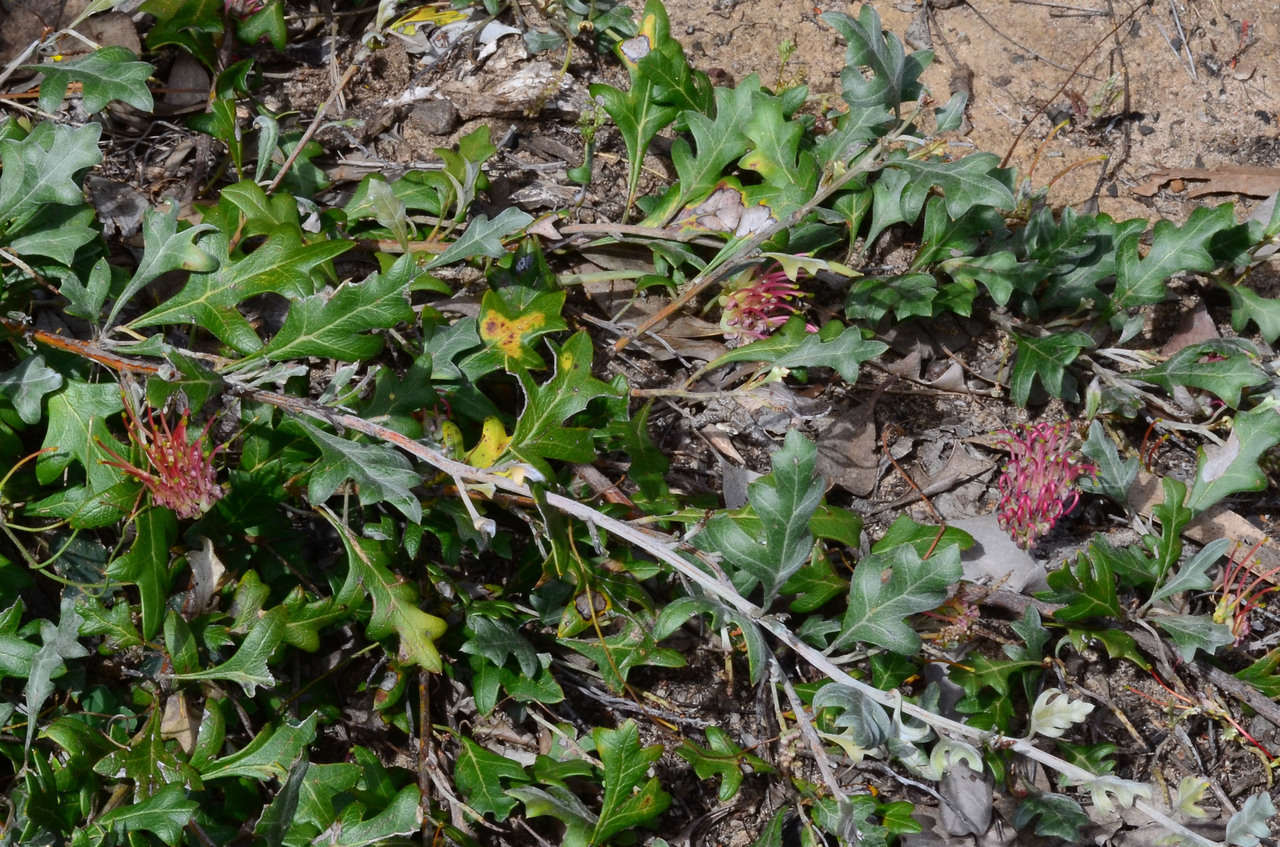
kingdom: Plantae
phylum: Tracheophyta
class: Magnoliopsida
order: Proteales
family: Proteaceae
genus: Grevillea
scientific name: Grevillea ilicifolia
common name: Holly grevillea
